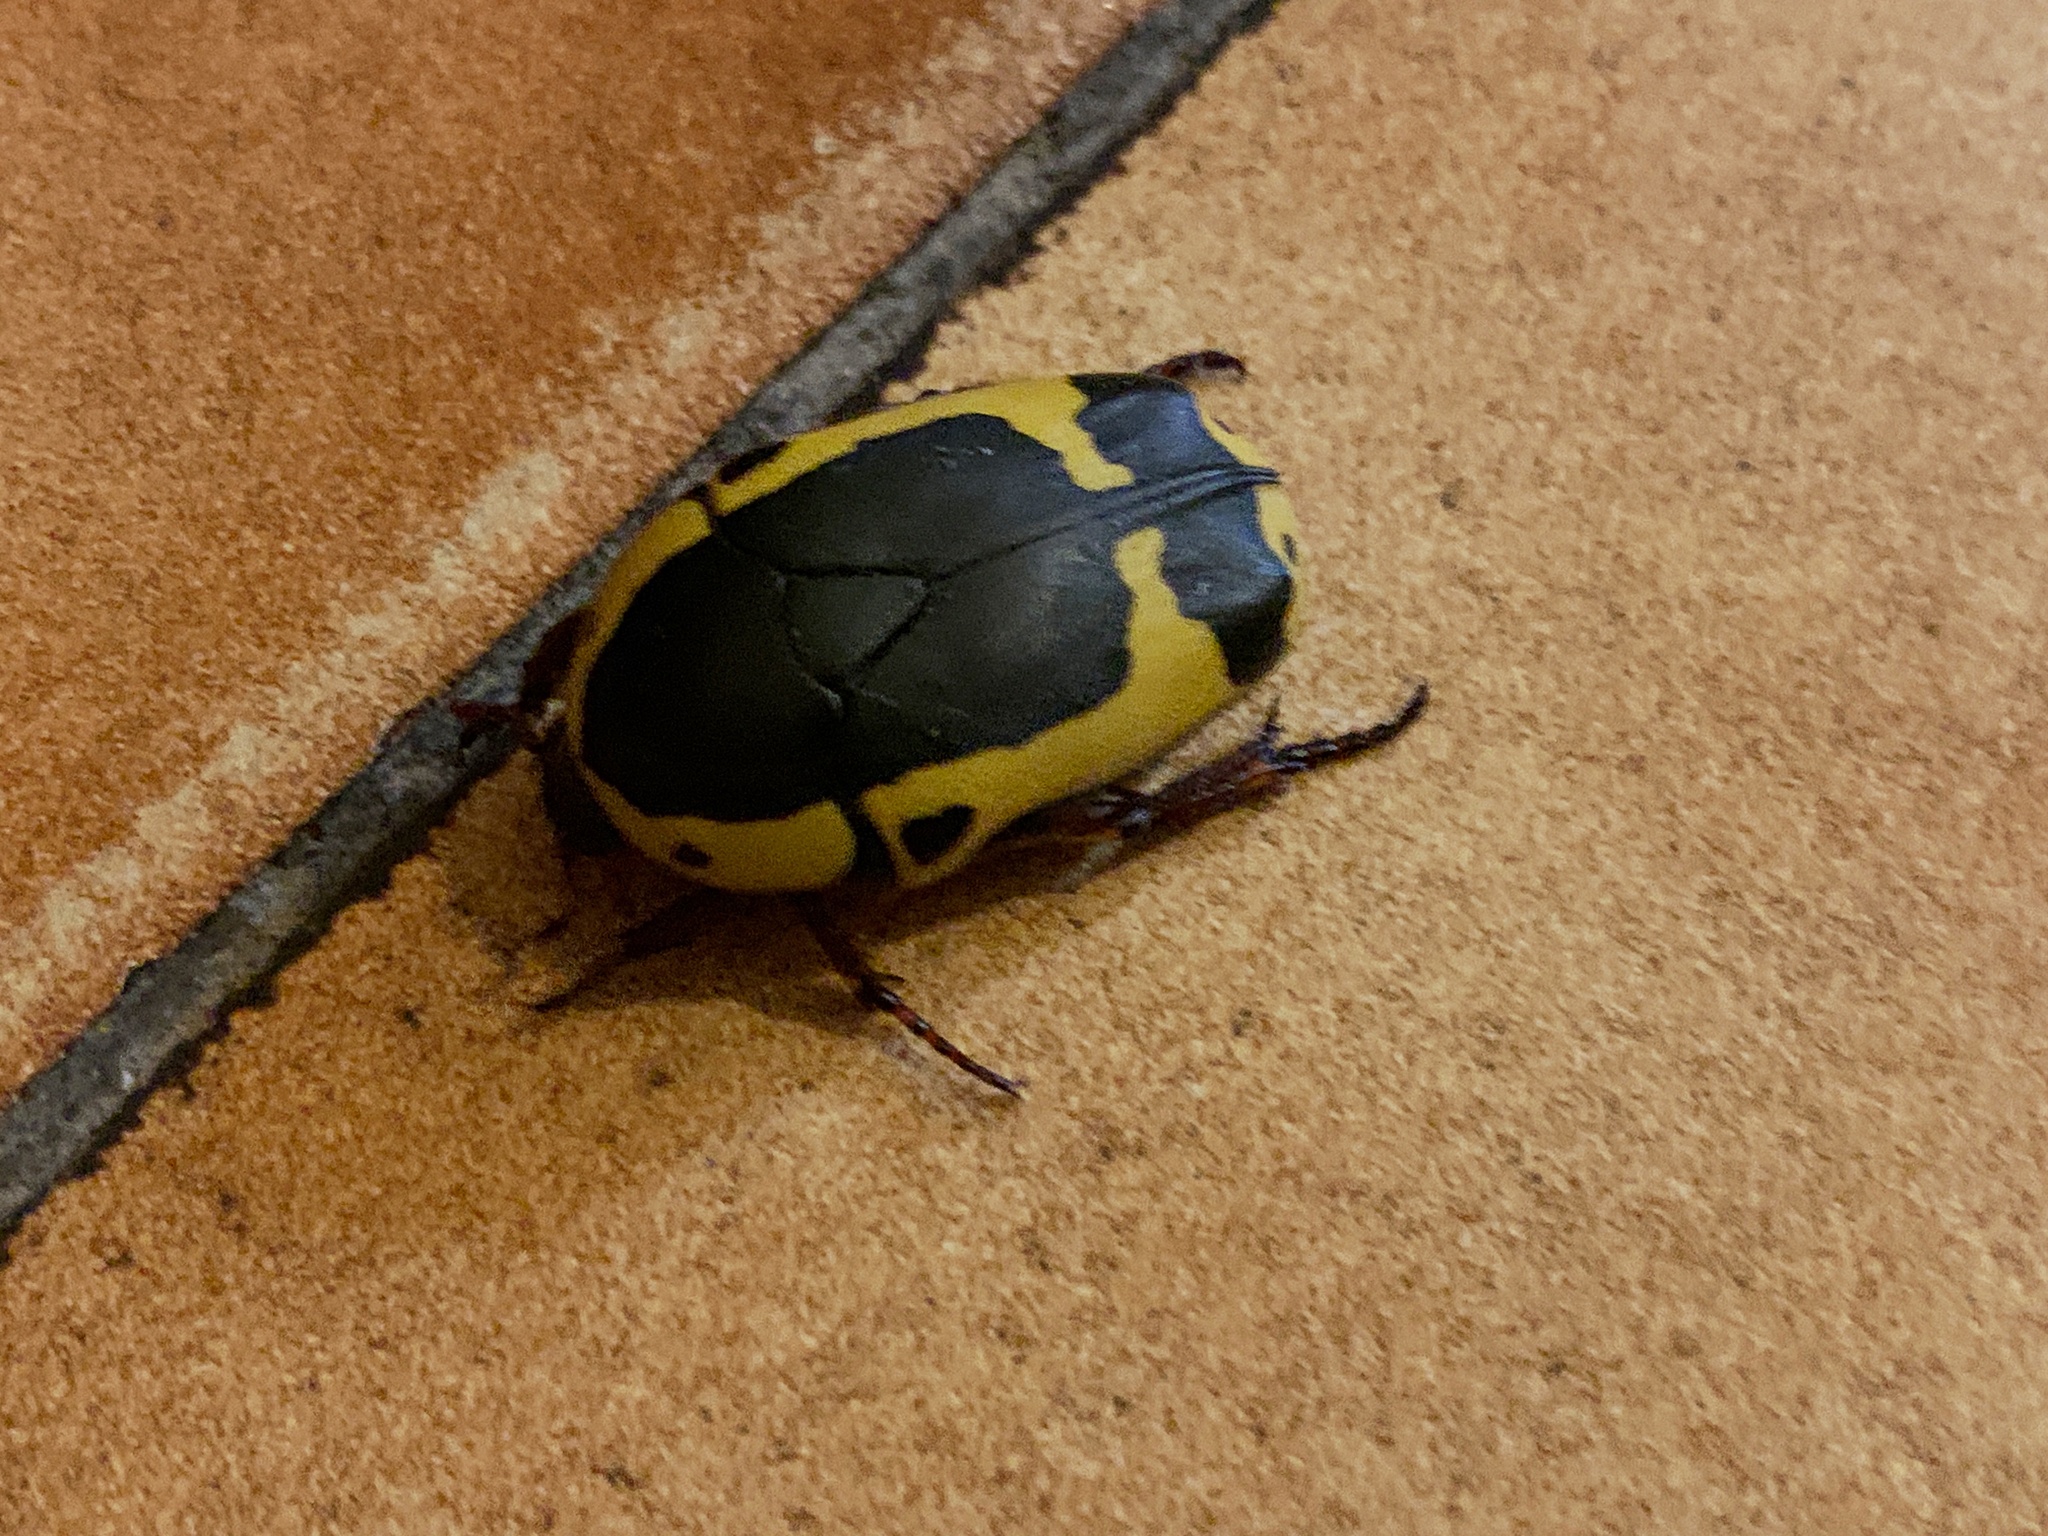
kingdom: Animalia
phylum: Arthropoda
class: Insecta
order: Coleoptera
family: Scarabaeidae
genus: Pachnoda
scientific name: Pachnoda sinuata
